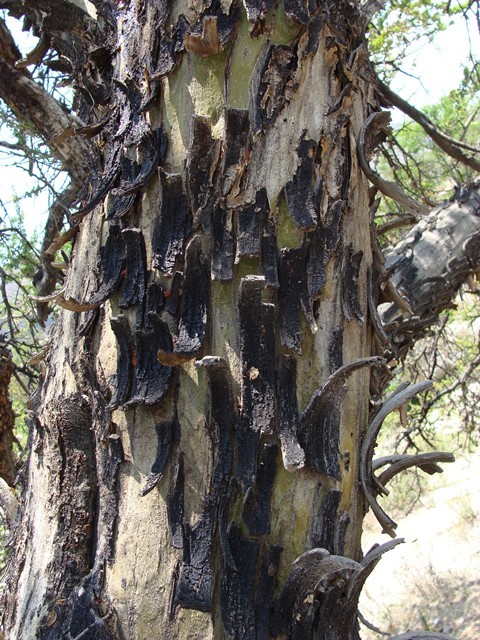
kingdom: Plantae
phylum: Tracheophyta
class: Magnoliopsida
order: Fabales
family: Fabaceae
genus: Vachellia
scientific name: Vachellia bilimekii
